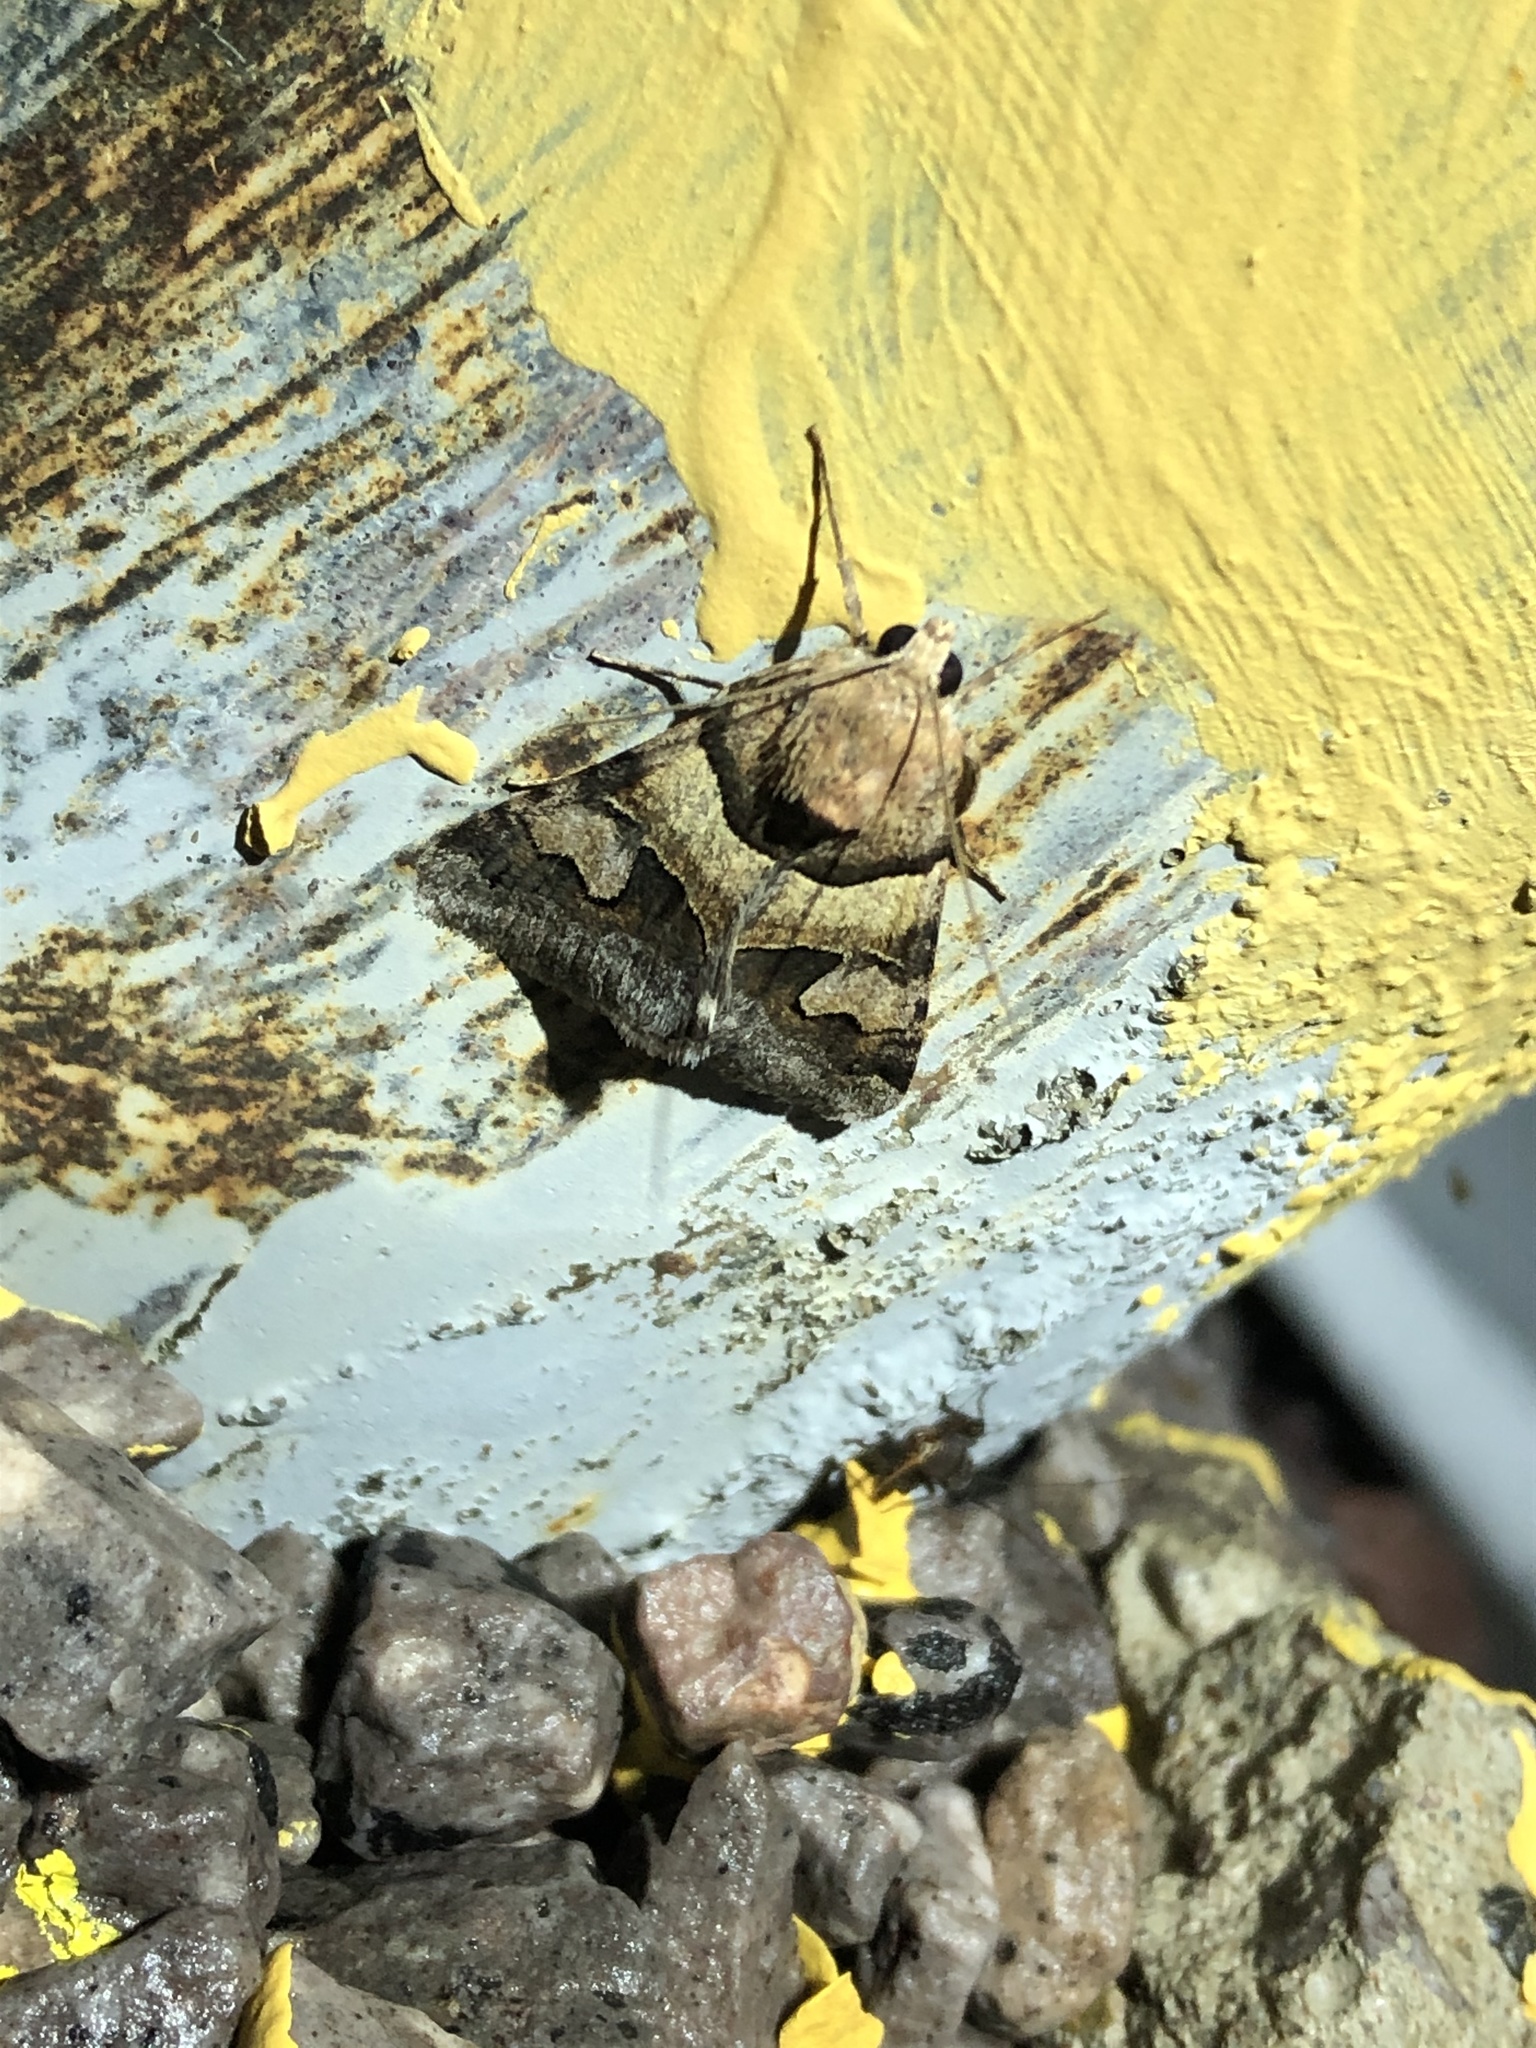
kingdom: Animalia
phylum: Arthropoda
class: Insecta
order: Lepidoptera
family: Erebidae
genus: Drasteria
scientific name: Drasteria pallescens
